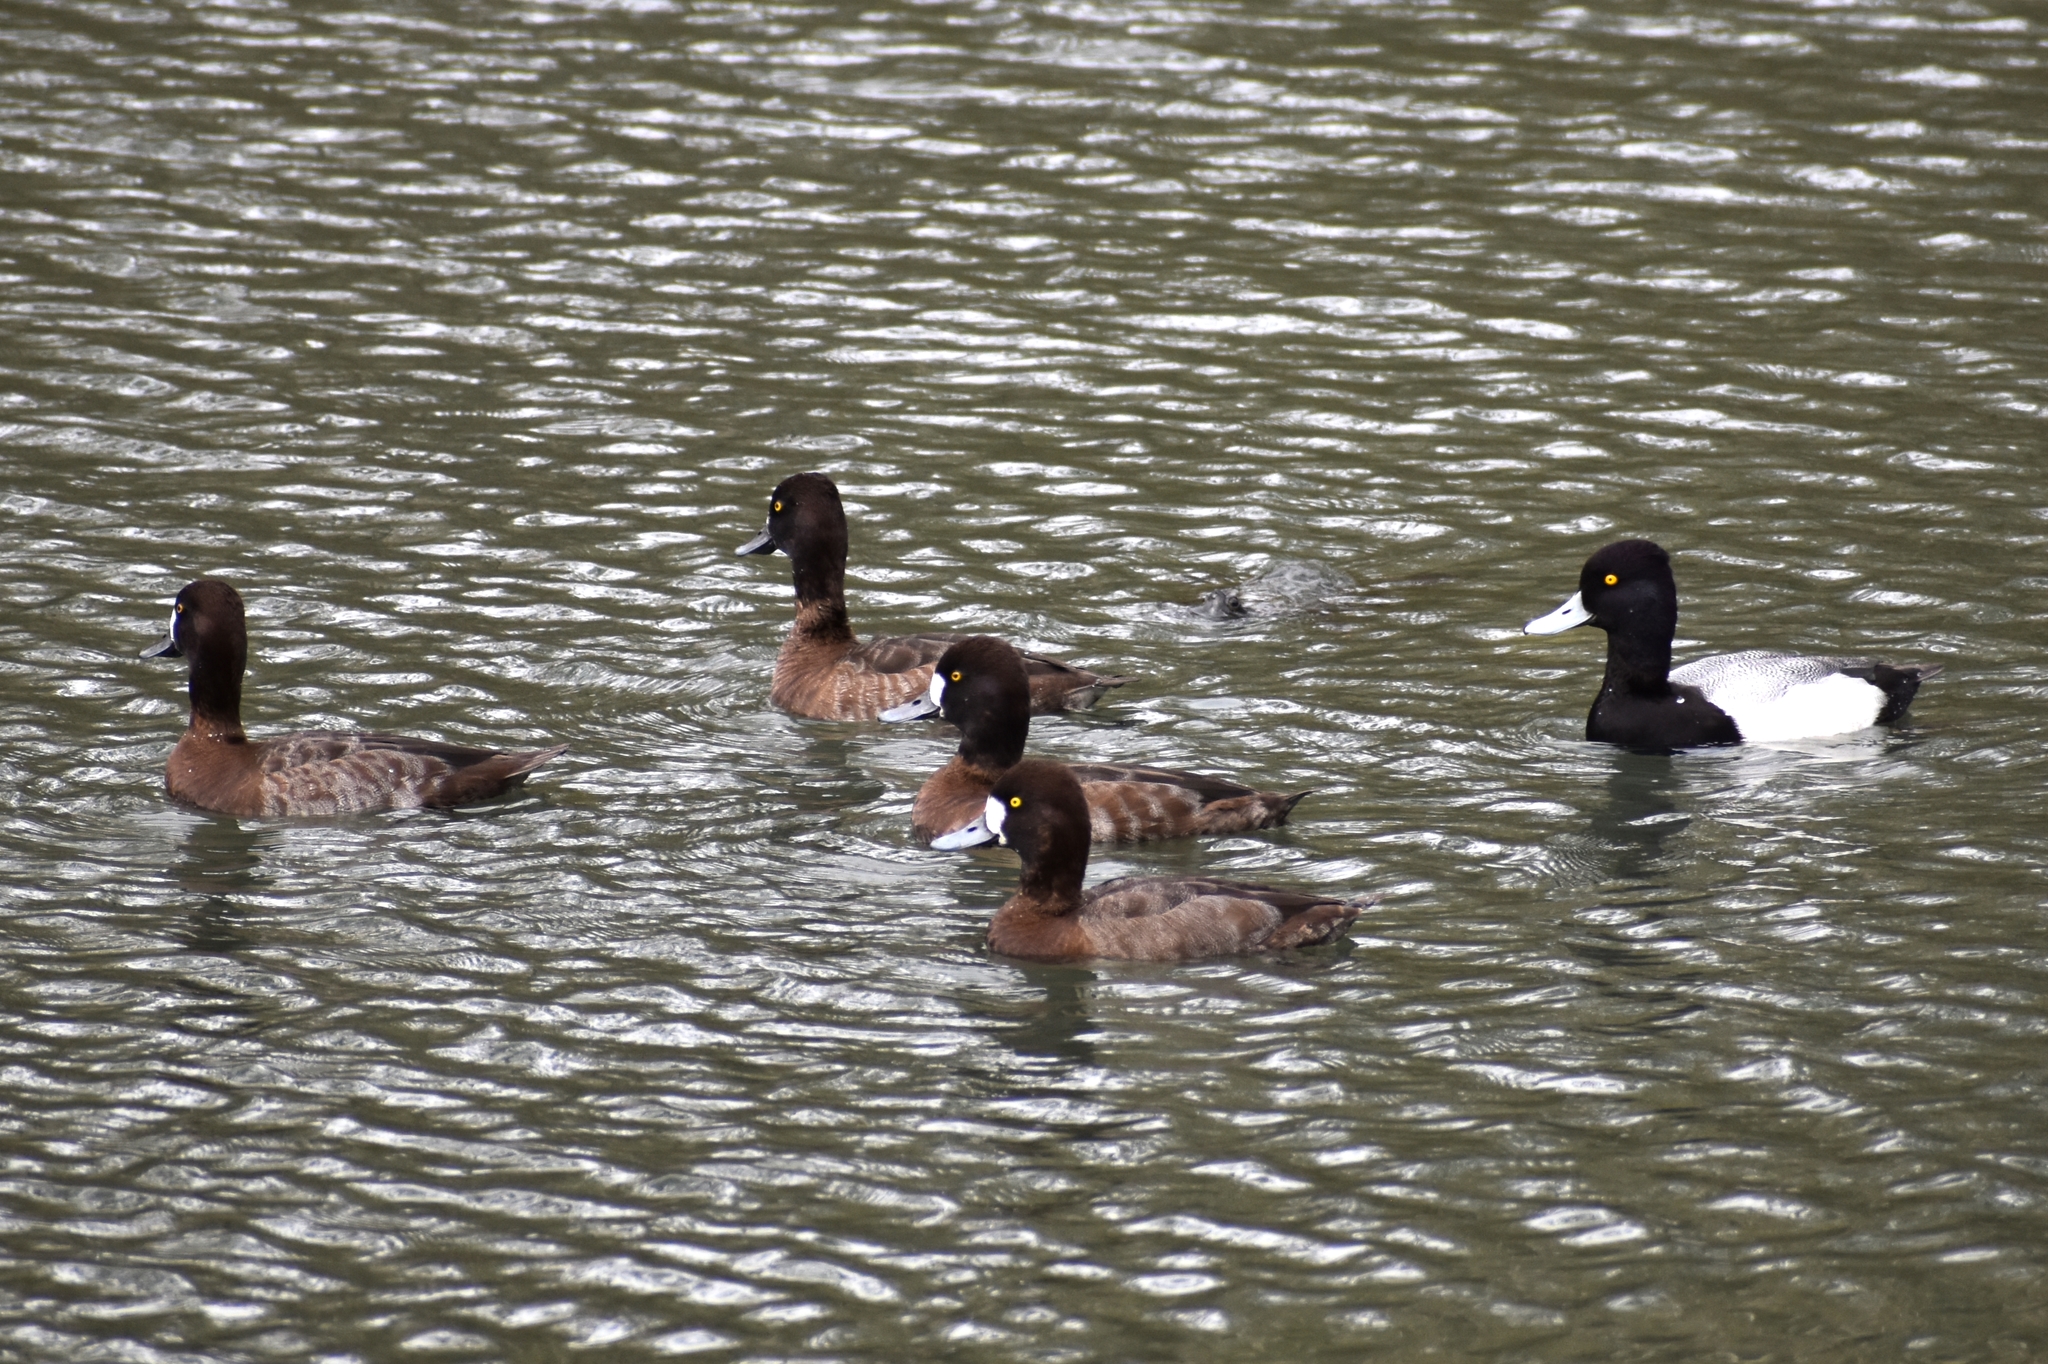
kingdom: Animalia
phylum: Chordata
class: Aves
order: Anseriformes
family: Anatidae
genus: Aythya
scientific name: Aythya affinis
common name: Lesser scaup
